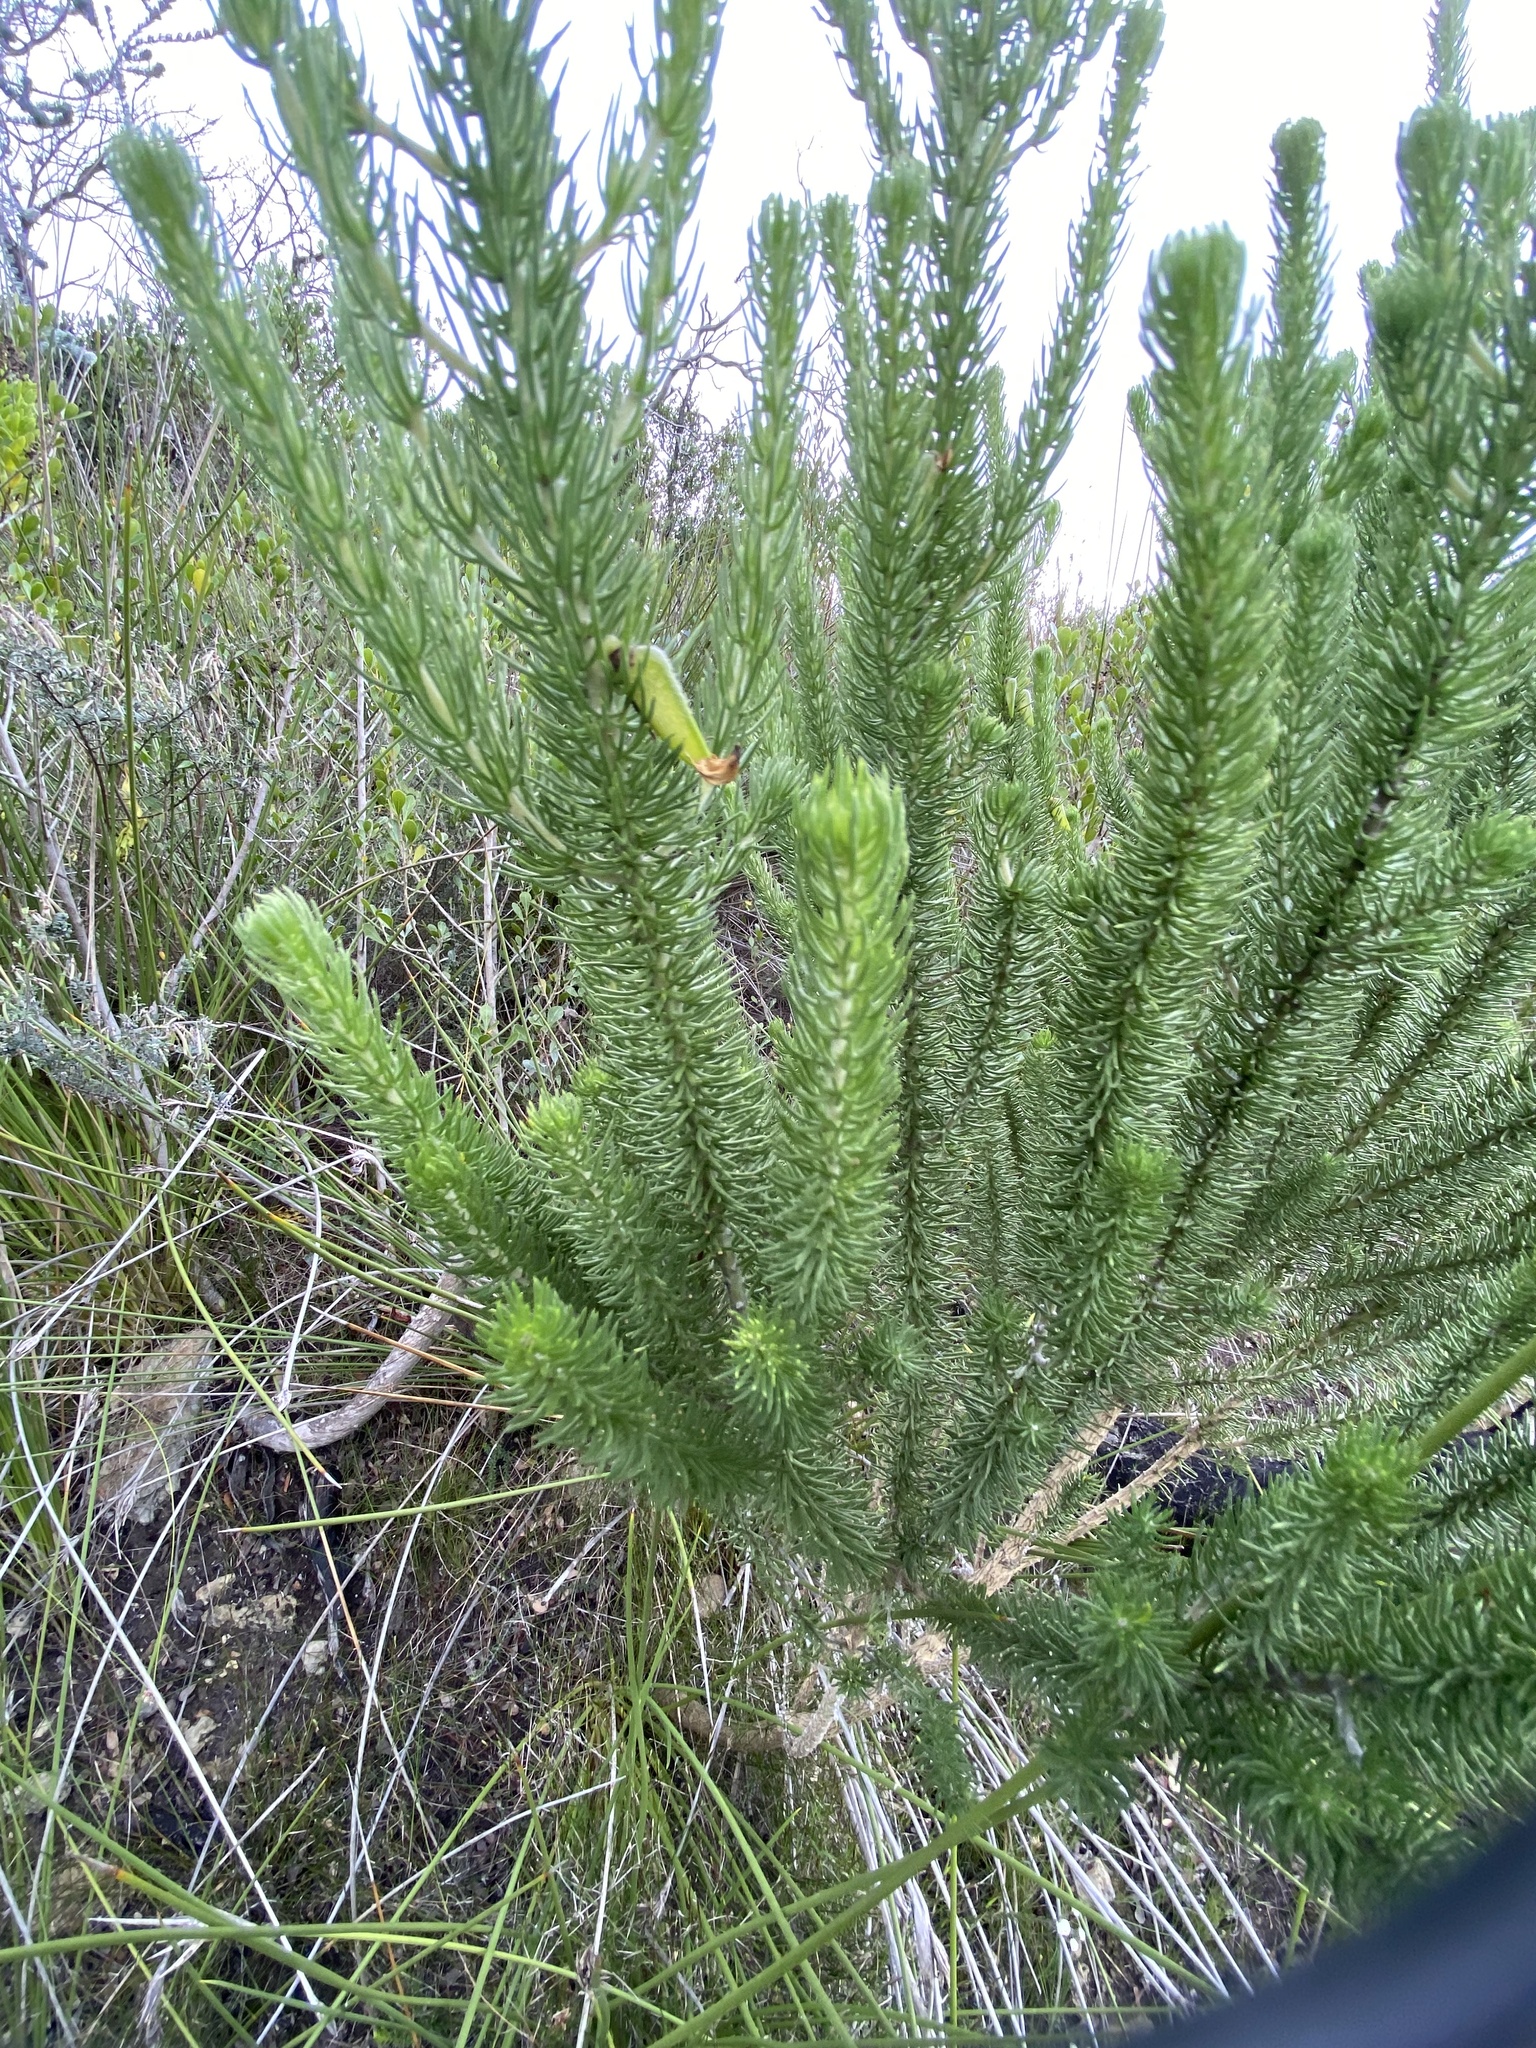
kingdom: Plantae
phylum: Tracheophyta
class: Magnoliopsida
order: Fabales
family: Fabaceae
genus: Aspalathus
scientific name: Aspalathus arenaria
